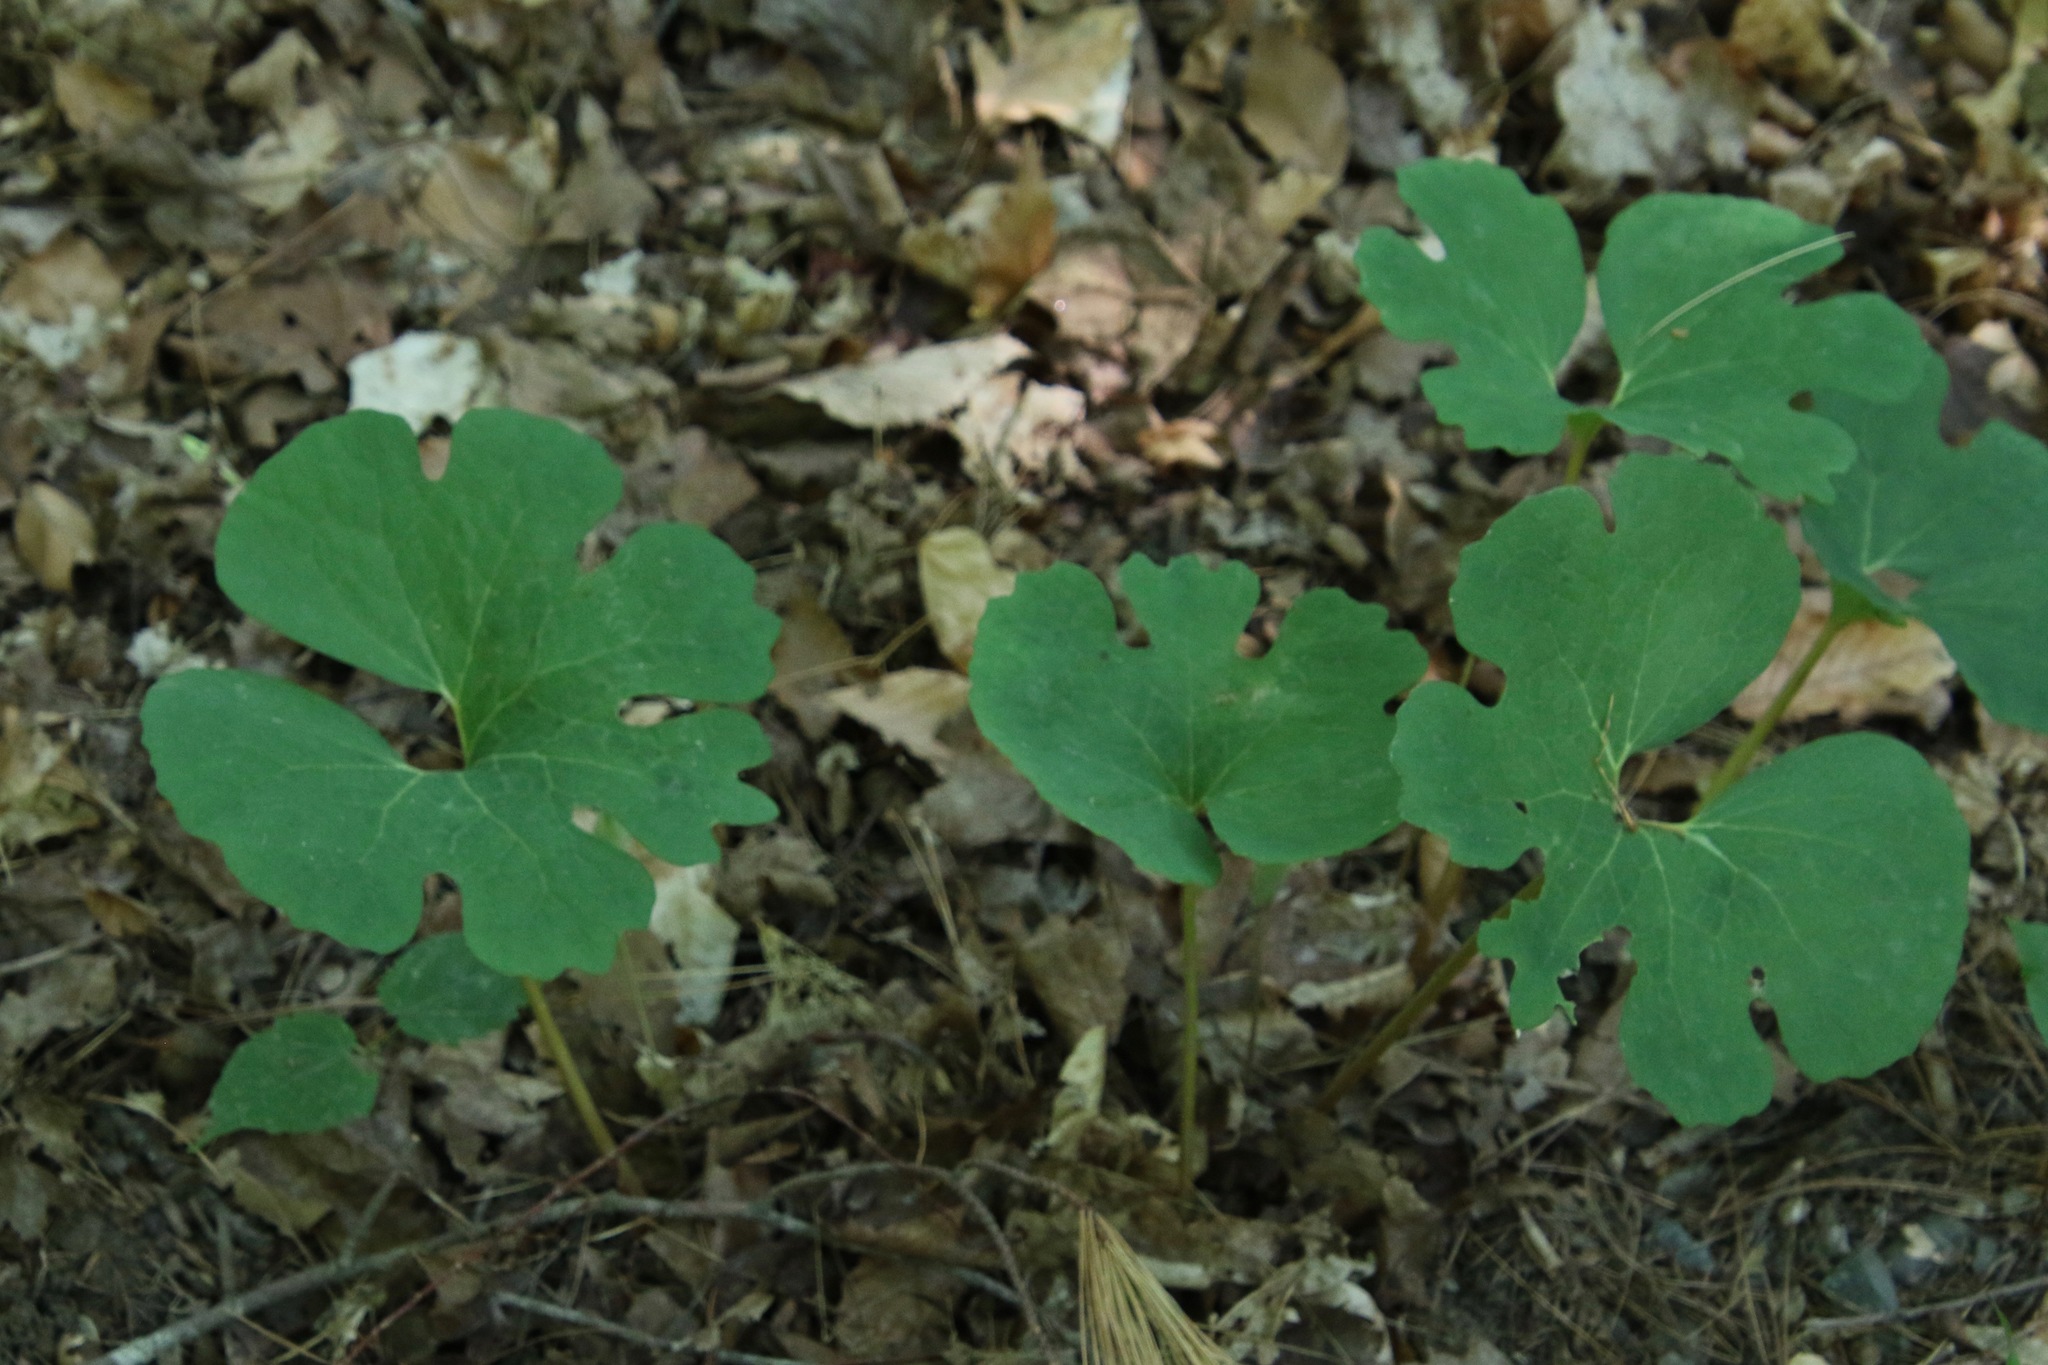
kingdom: Plantae
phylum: Tracheophyta
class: Magnoliopsida
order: Ranunculales
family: Papaveraceae
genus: Sanguinaria
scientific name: Sanguinaria canadensis
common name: Bloodroot
